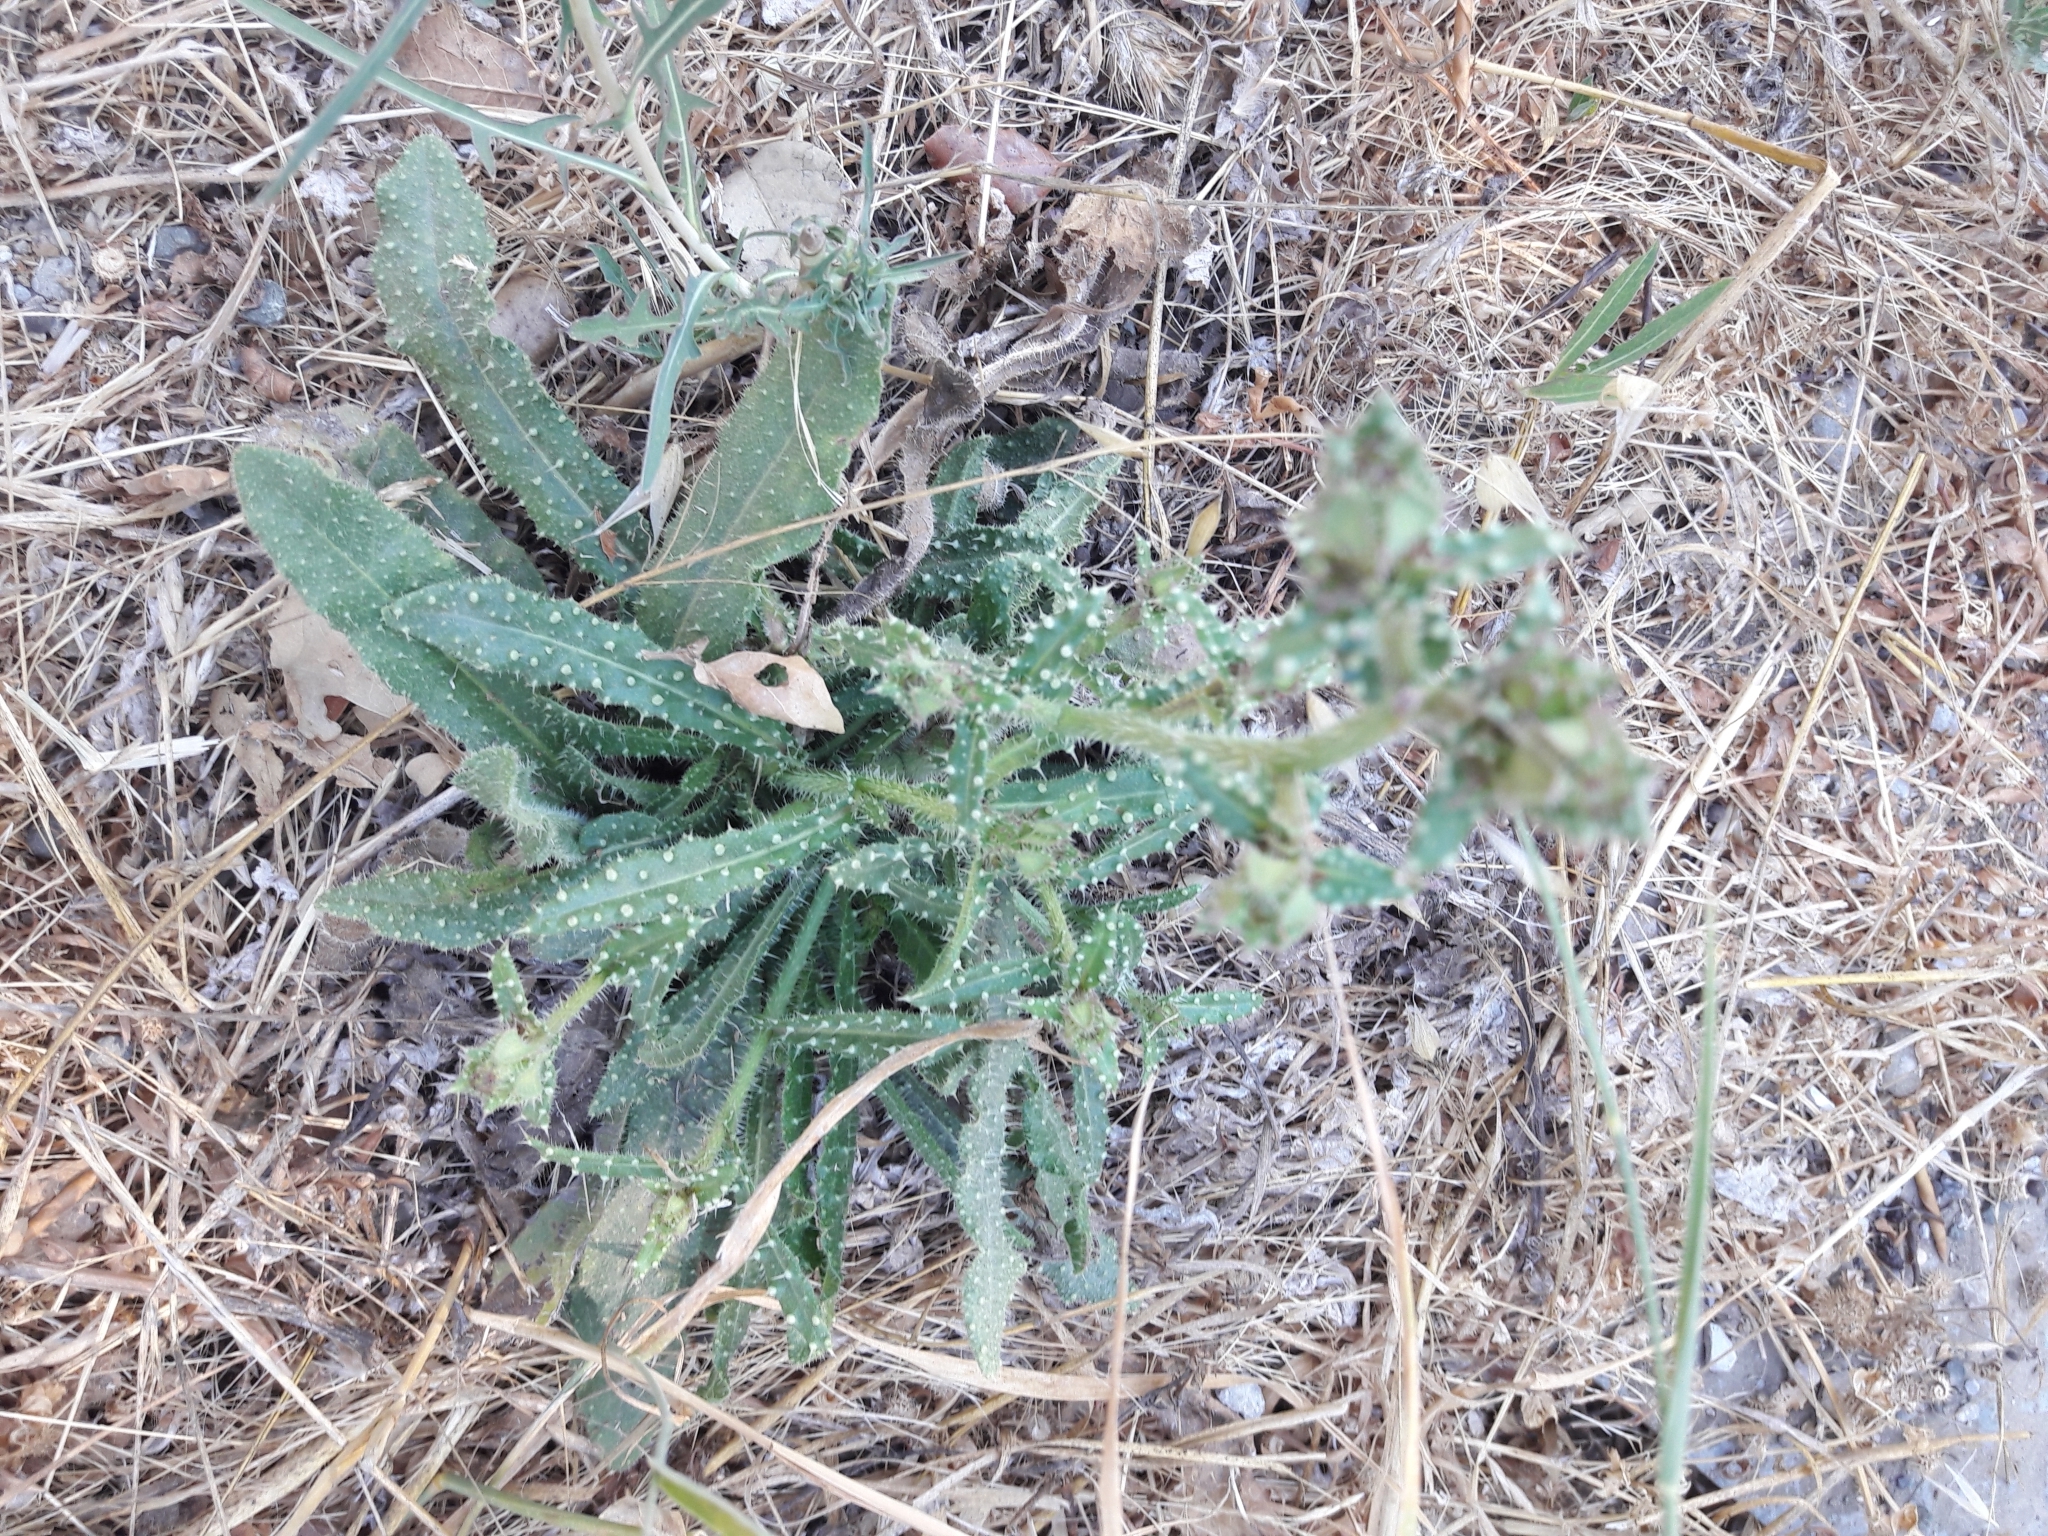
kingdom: Plantae
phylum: Tracheophyta
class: Magnoliopsida
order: Asterales
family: Asteraceae
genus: Helminthotheca
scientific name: Helminthotheca echioides
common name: Ox-tongue
